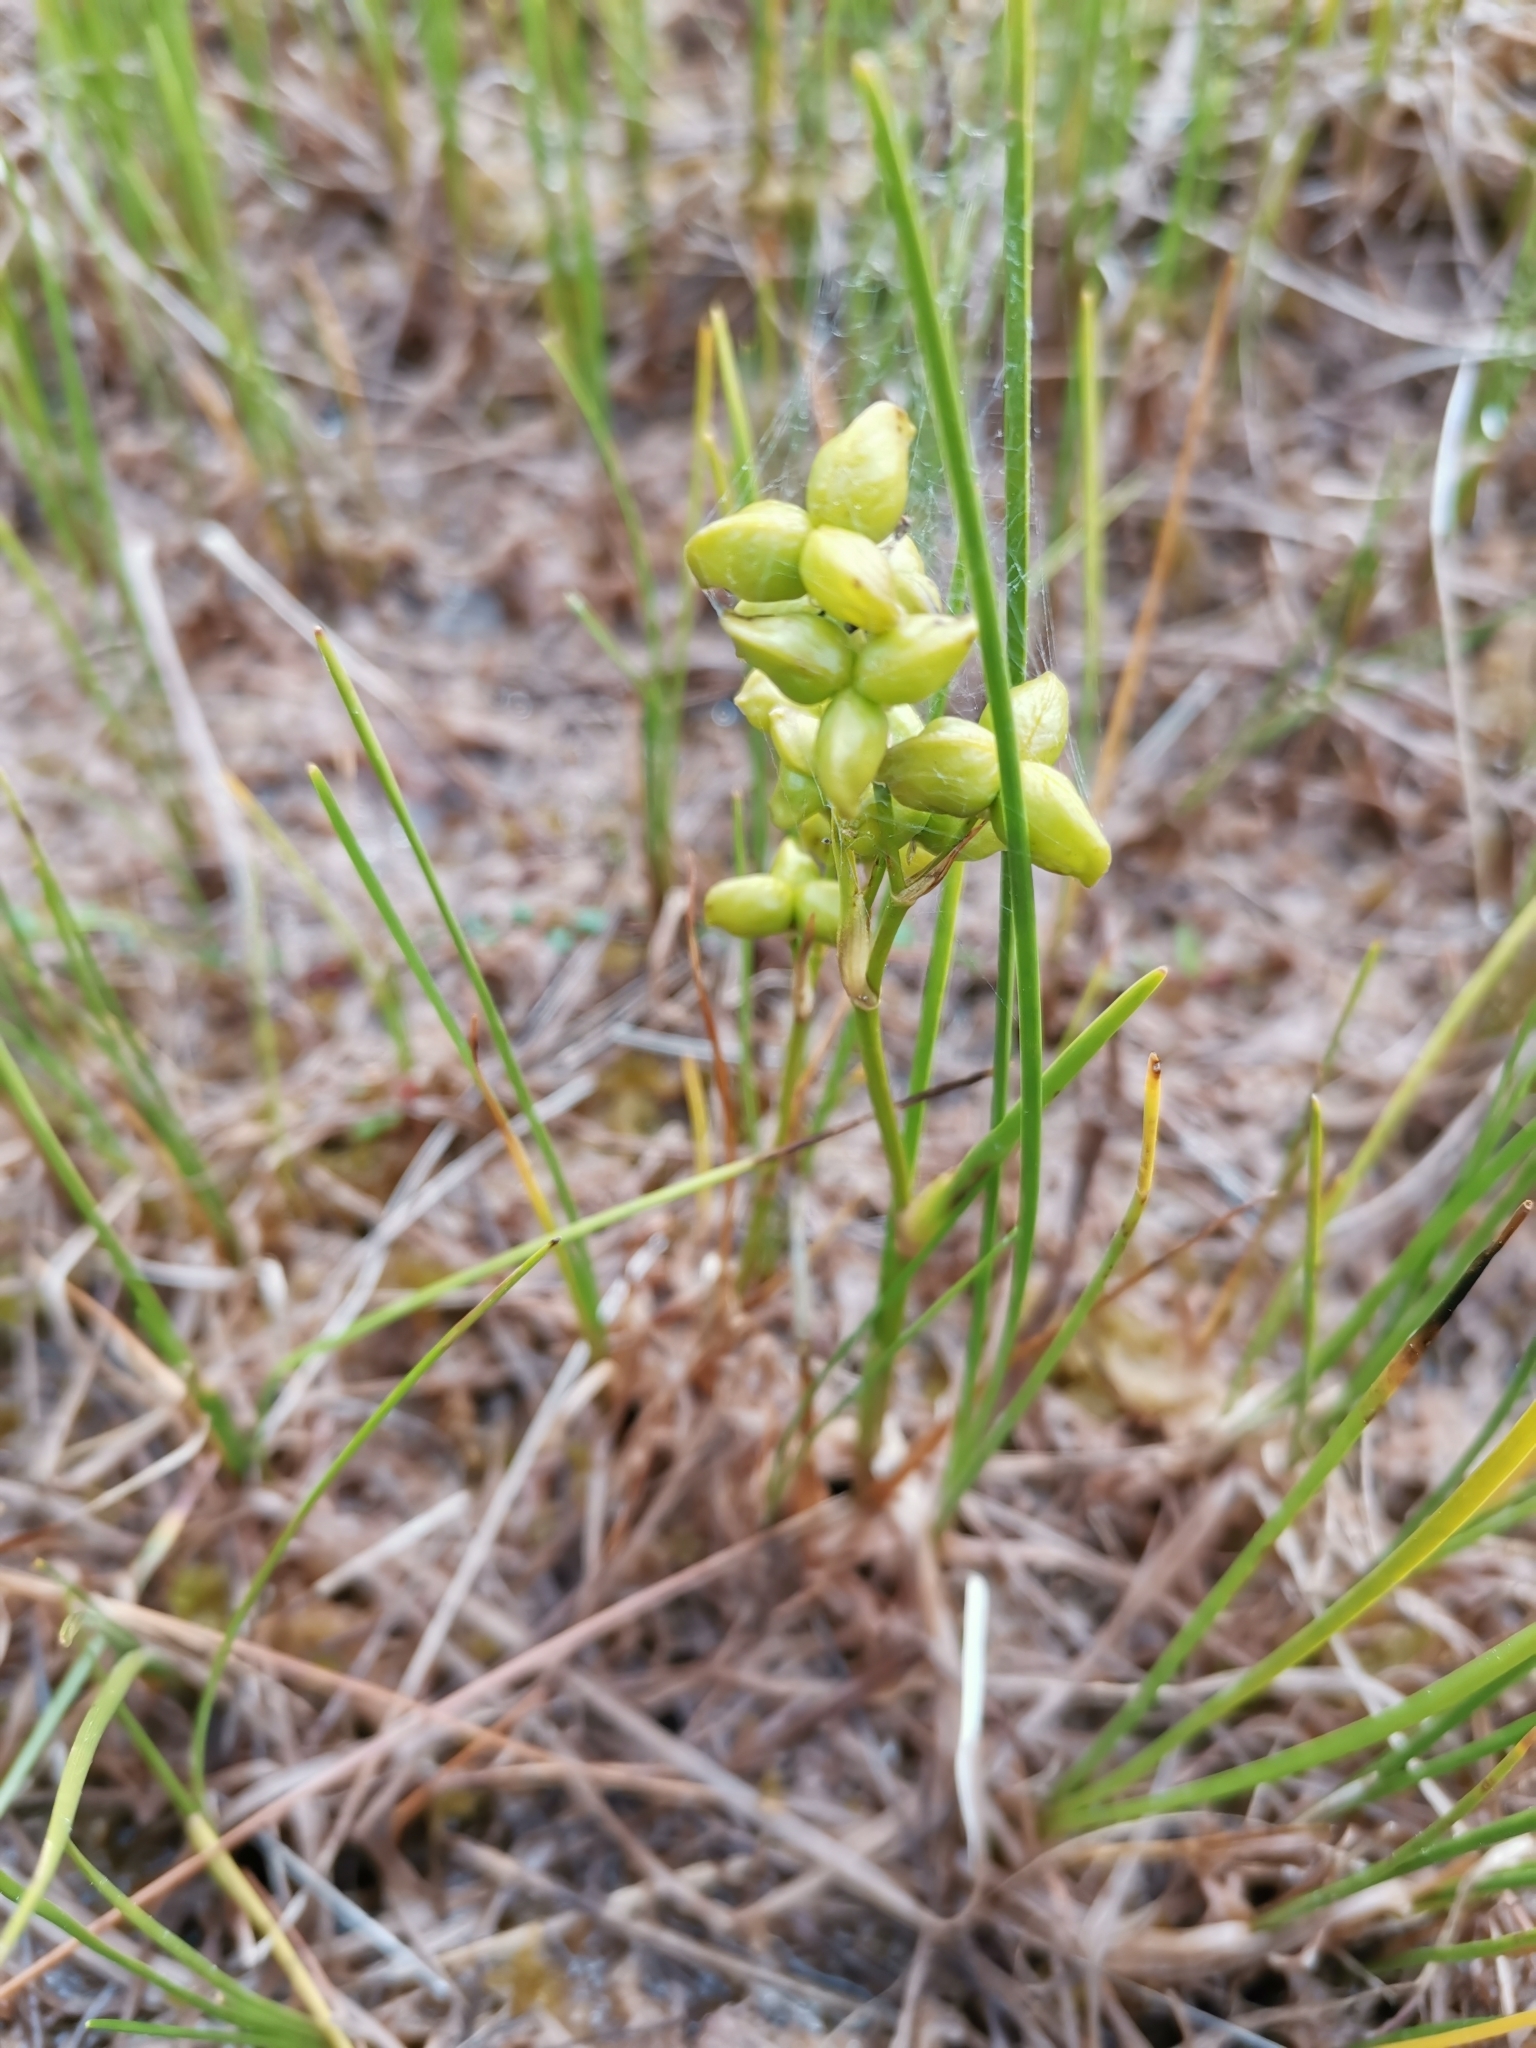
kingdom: Plantae
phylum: Tracheophyta
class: Liliopsida
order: Alismatales
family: Scheuchzeriaceae
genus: Scheuchzeria
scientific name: Scheuchzeria palustris
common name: Rannoch-rush
